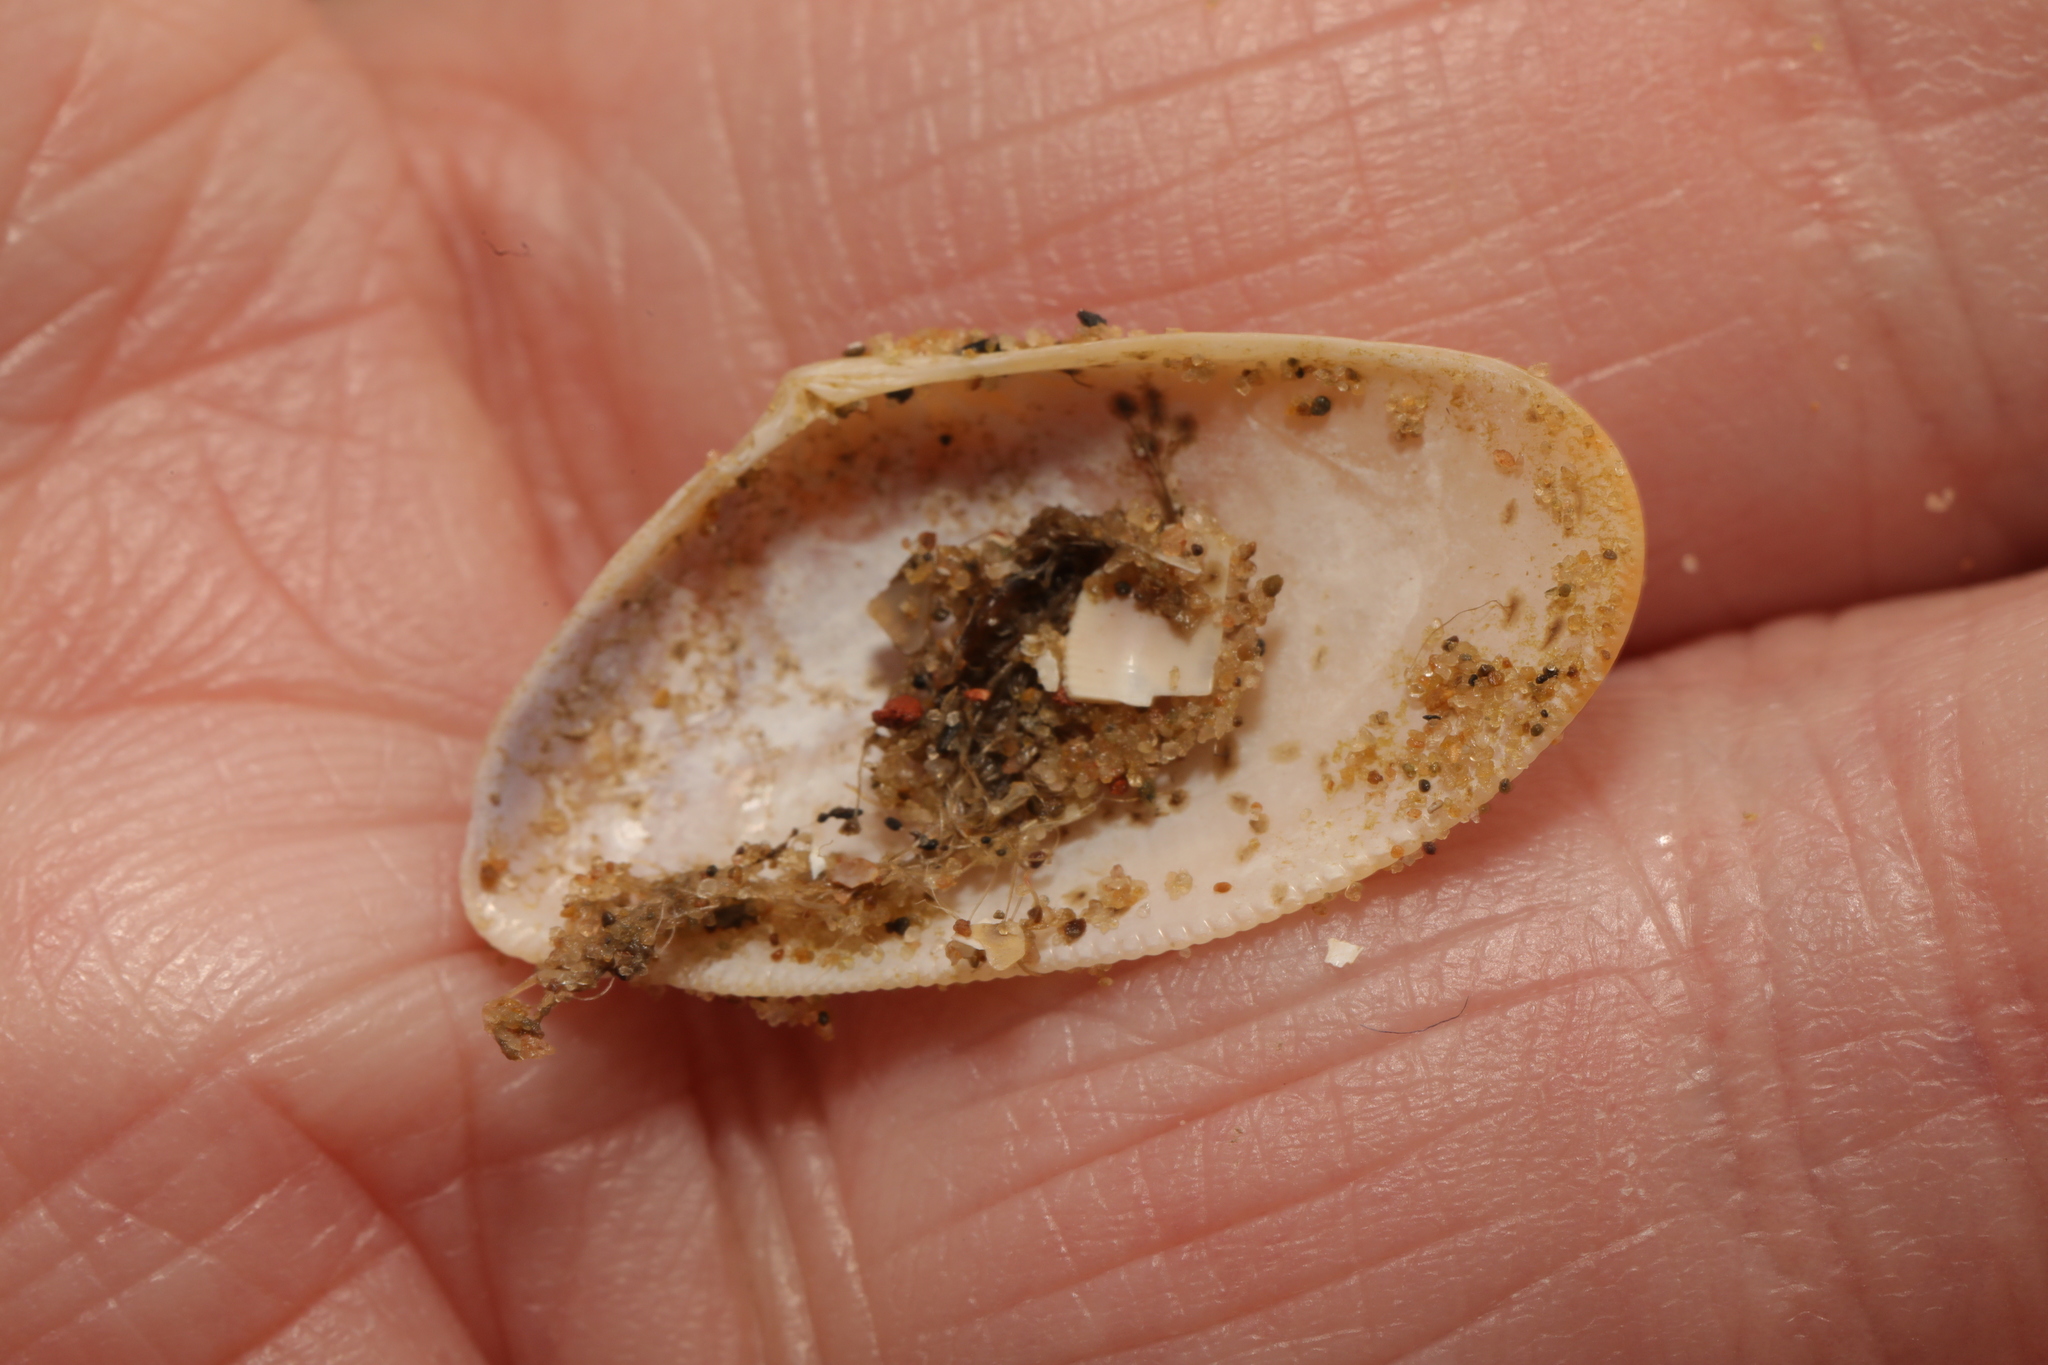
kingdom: Animalia
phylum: Mollusca
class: Bivalvia
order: Cardiida
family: Donacidae
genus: Donax
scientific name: Donax vittatus
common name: Banded wedge-shell
